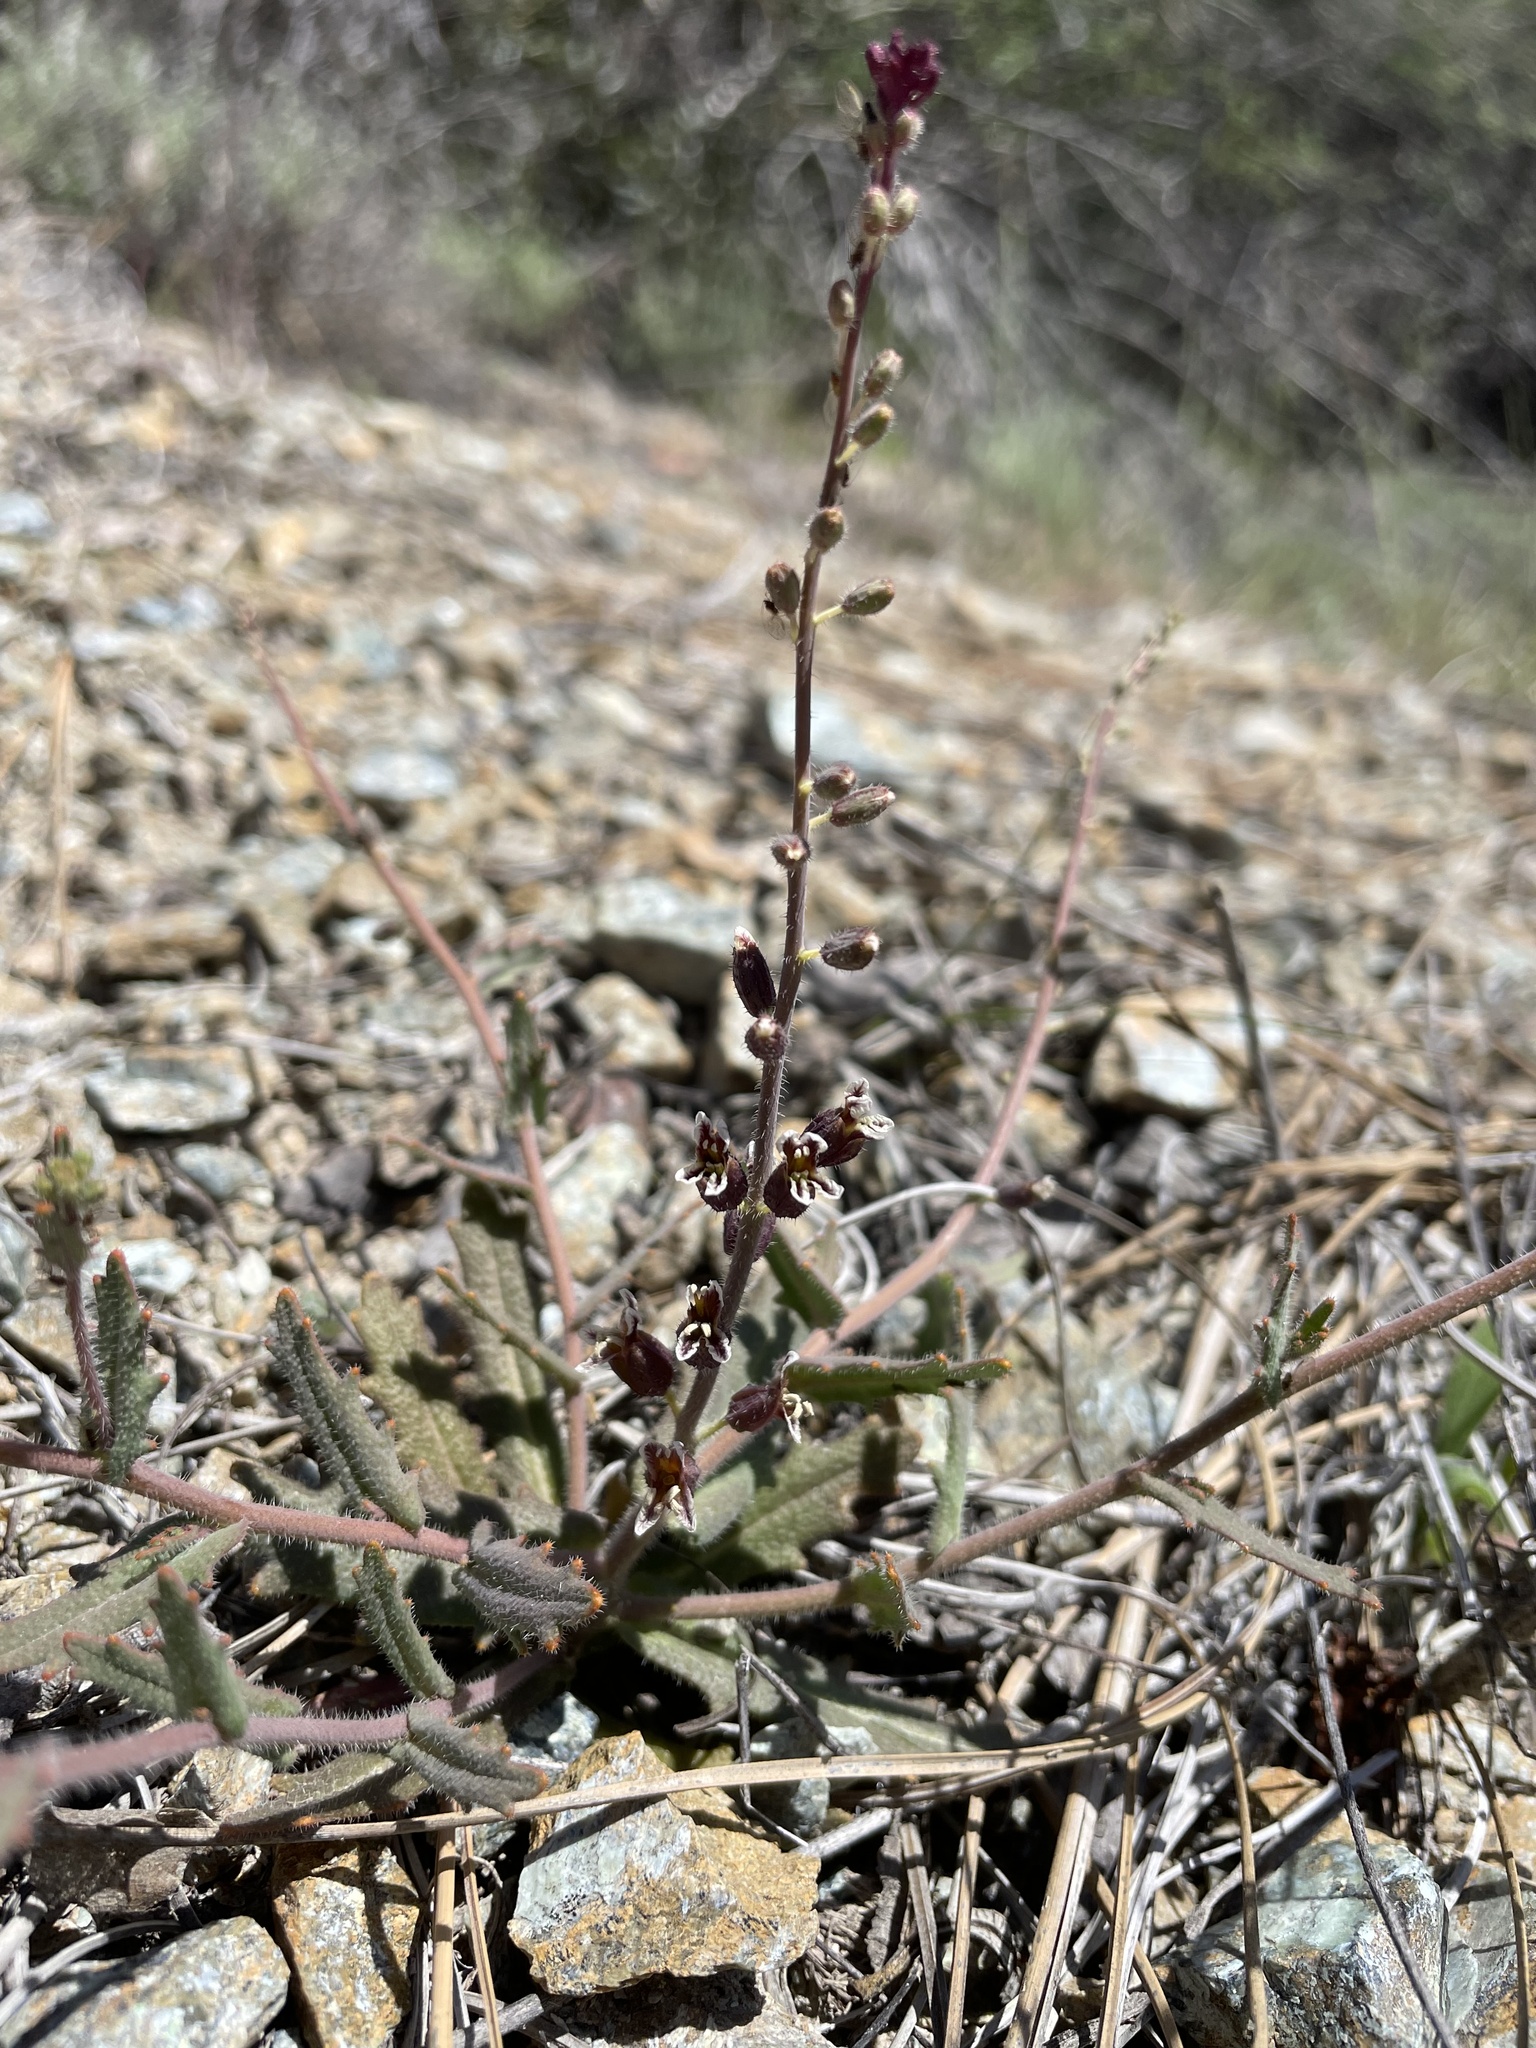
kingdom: Plantae
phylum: Tracheophyta
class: Magnoliopsida
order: Brassicales
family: Brassicaceae
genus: Streptanthus
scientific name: Streptanthus insignis
